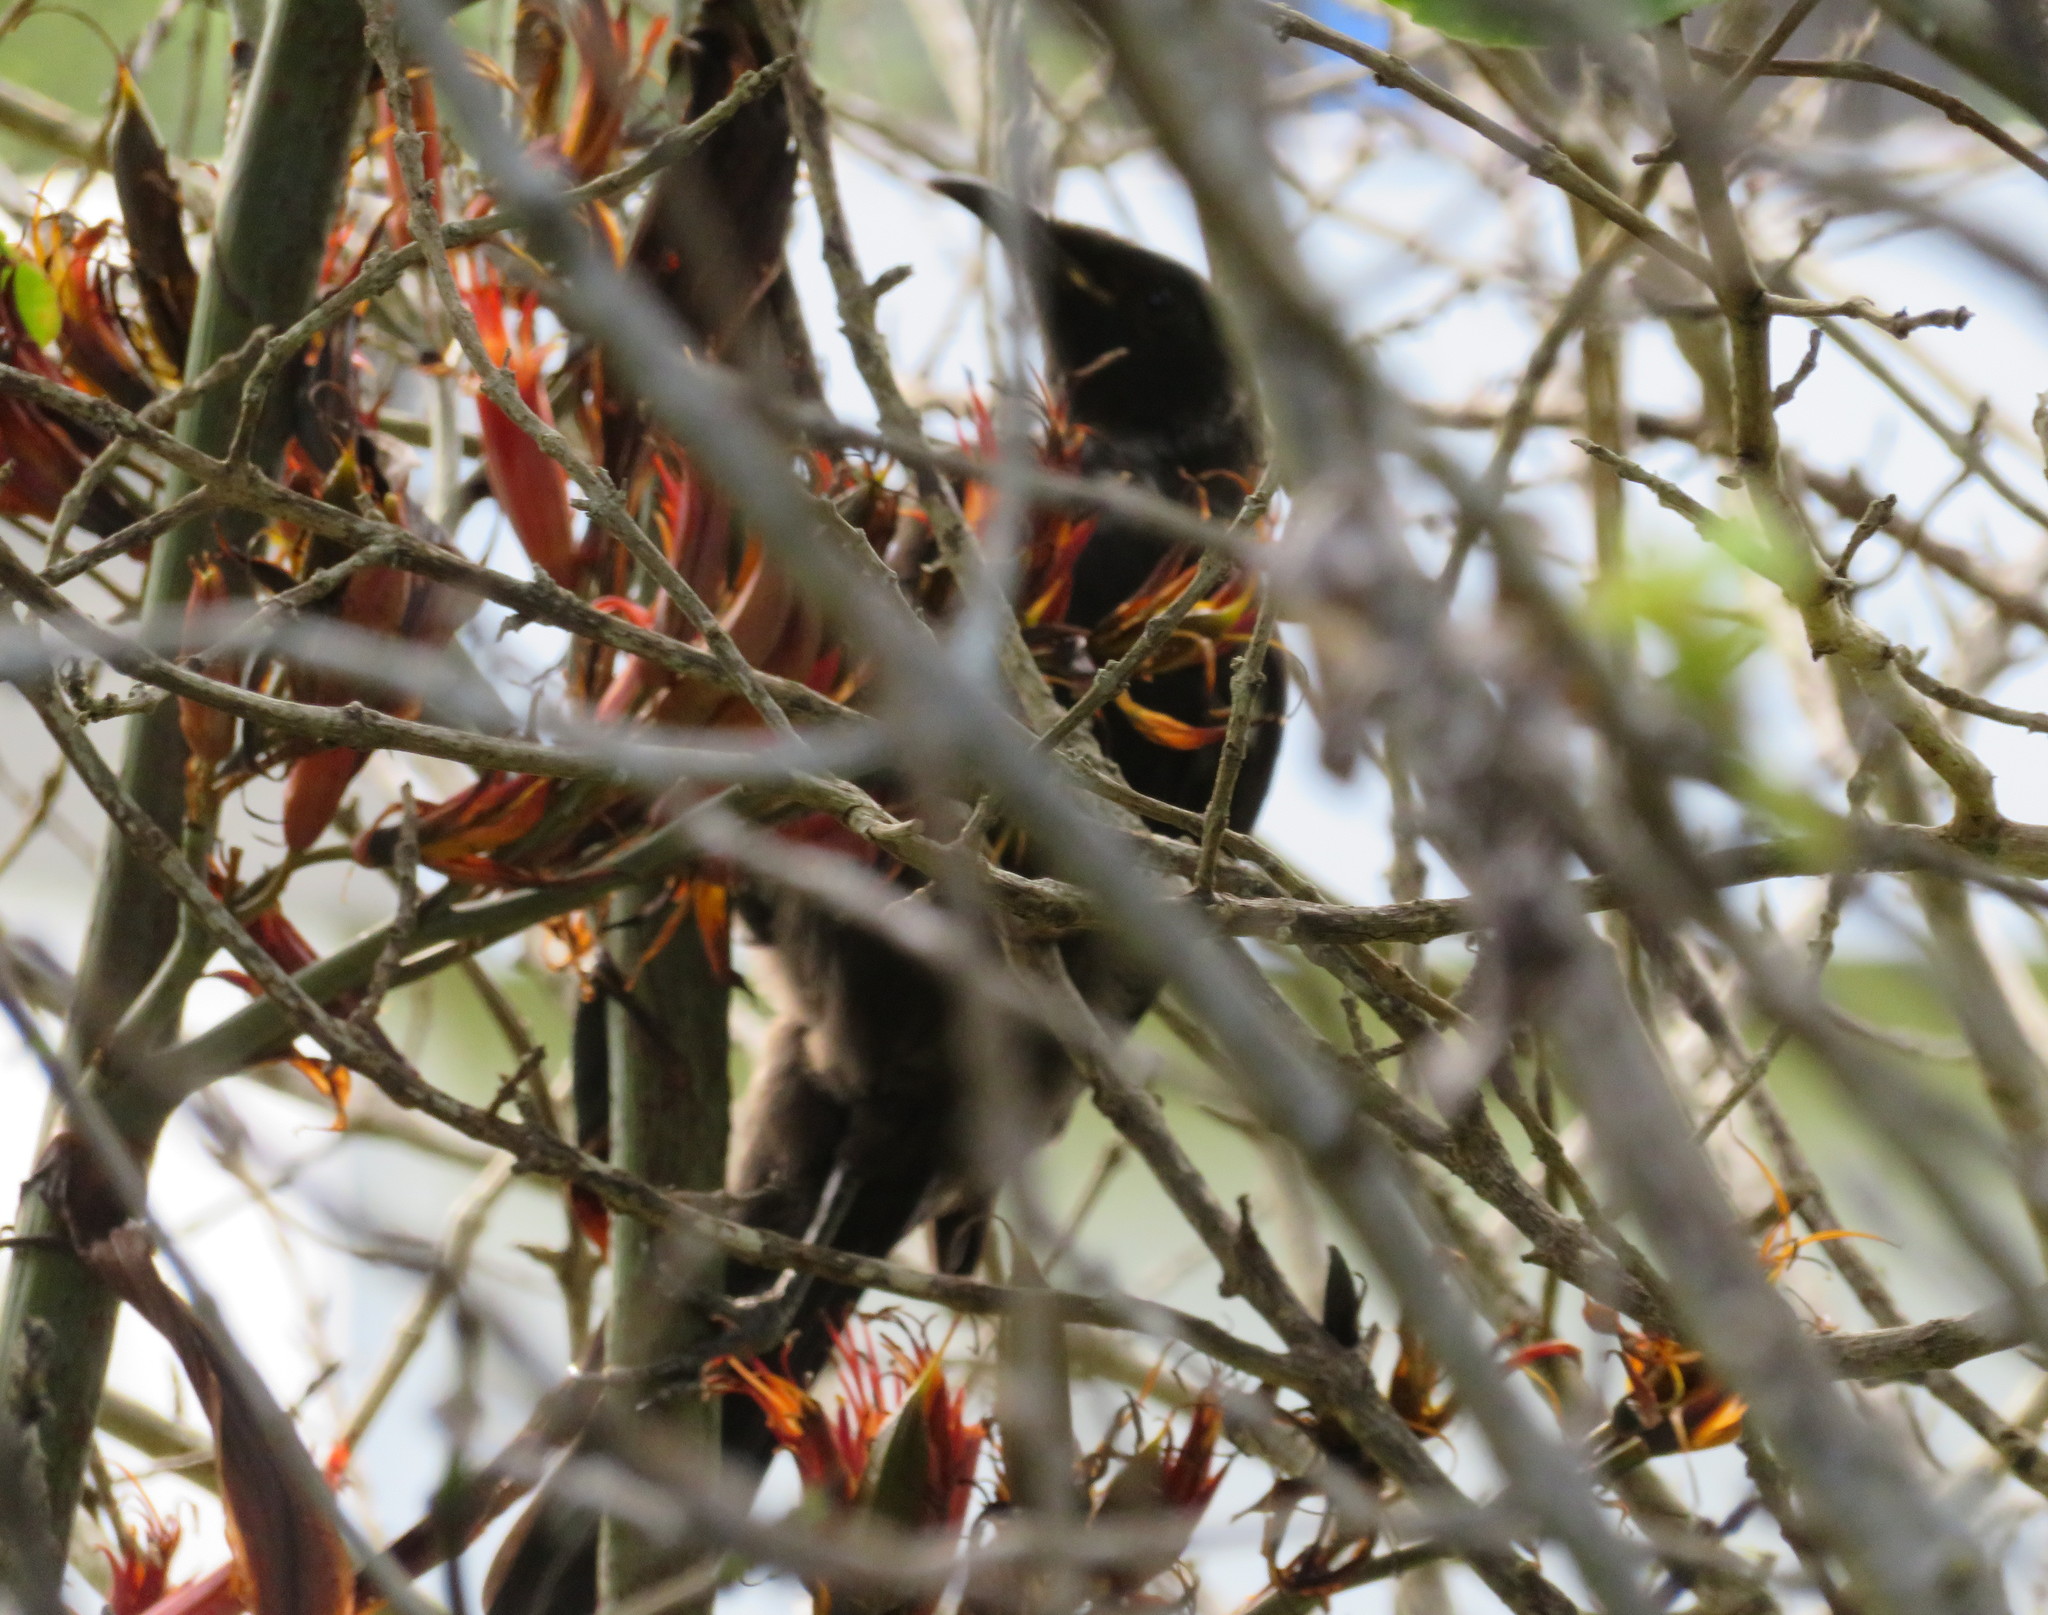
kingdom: Animalia
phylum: Chordata
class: Aves
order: Passeriformes
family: Meliphagidae
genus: Prosthemadera
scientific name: Prosthemadera novaeseelandiae
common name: Tui
